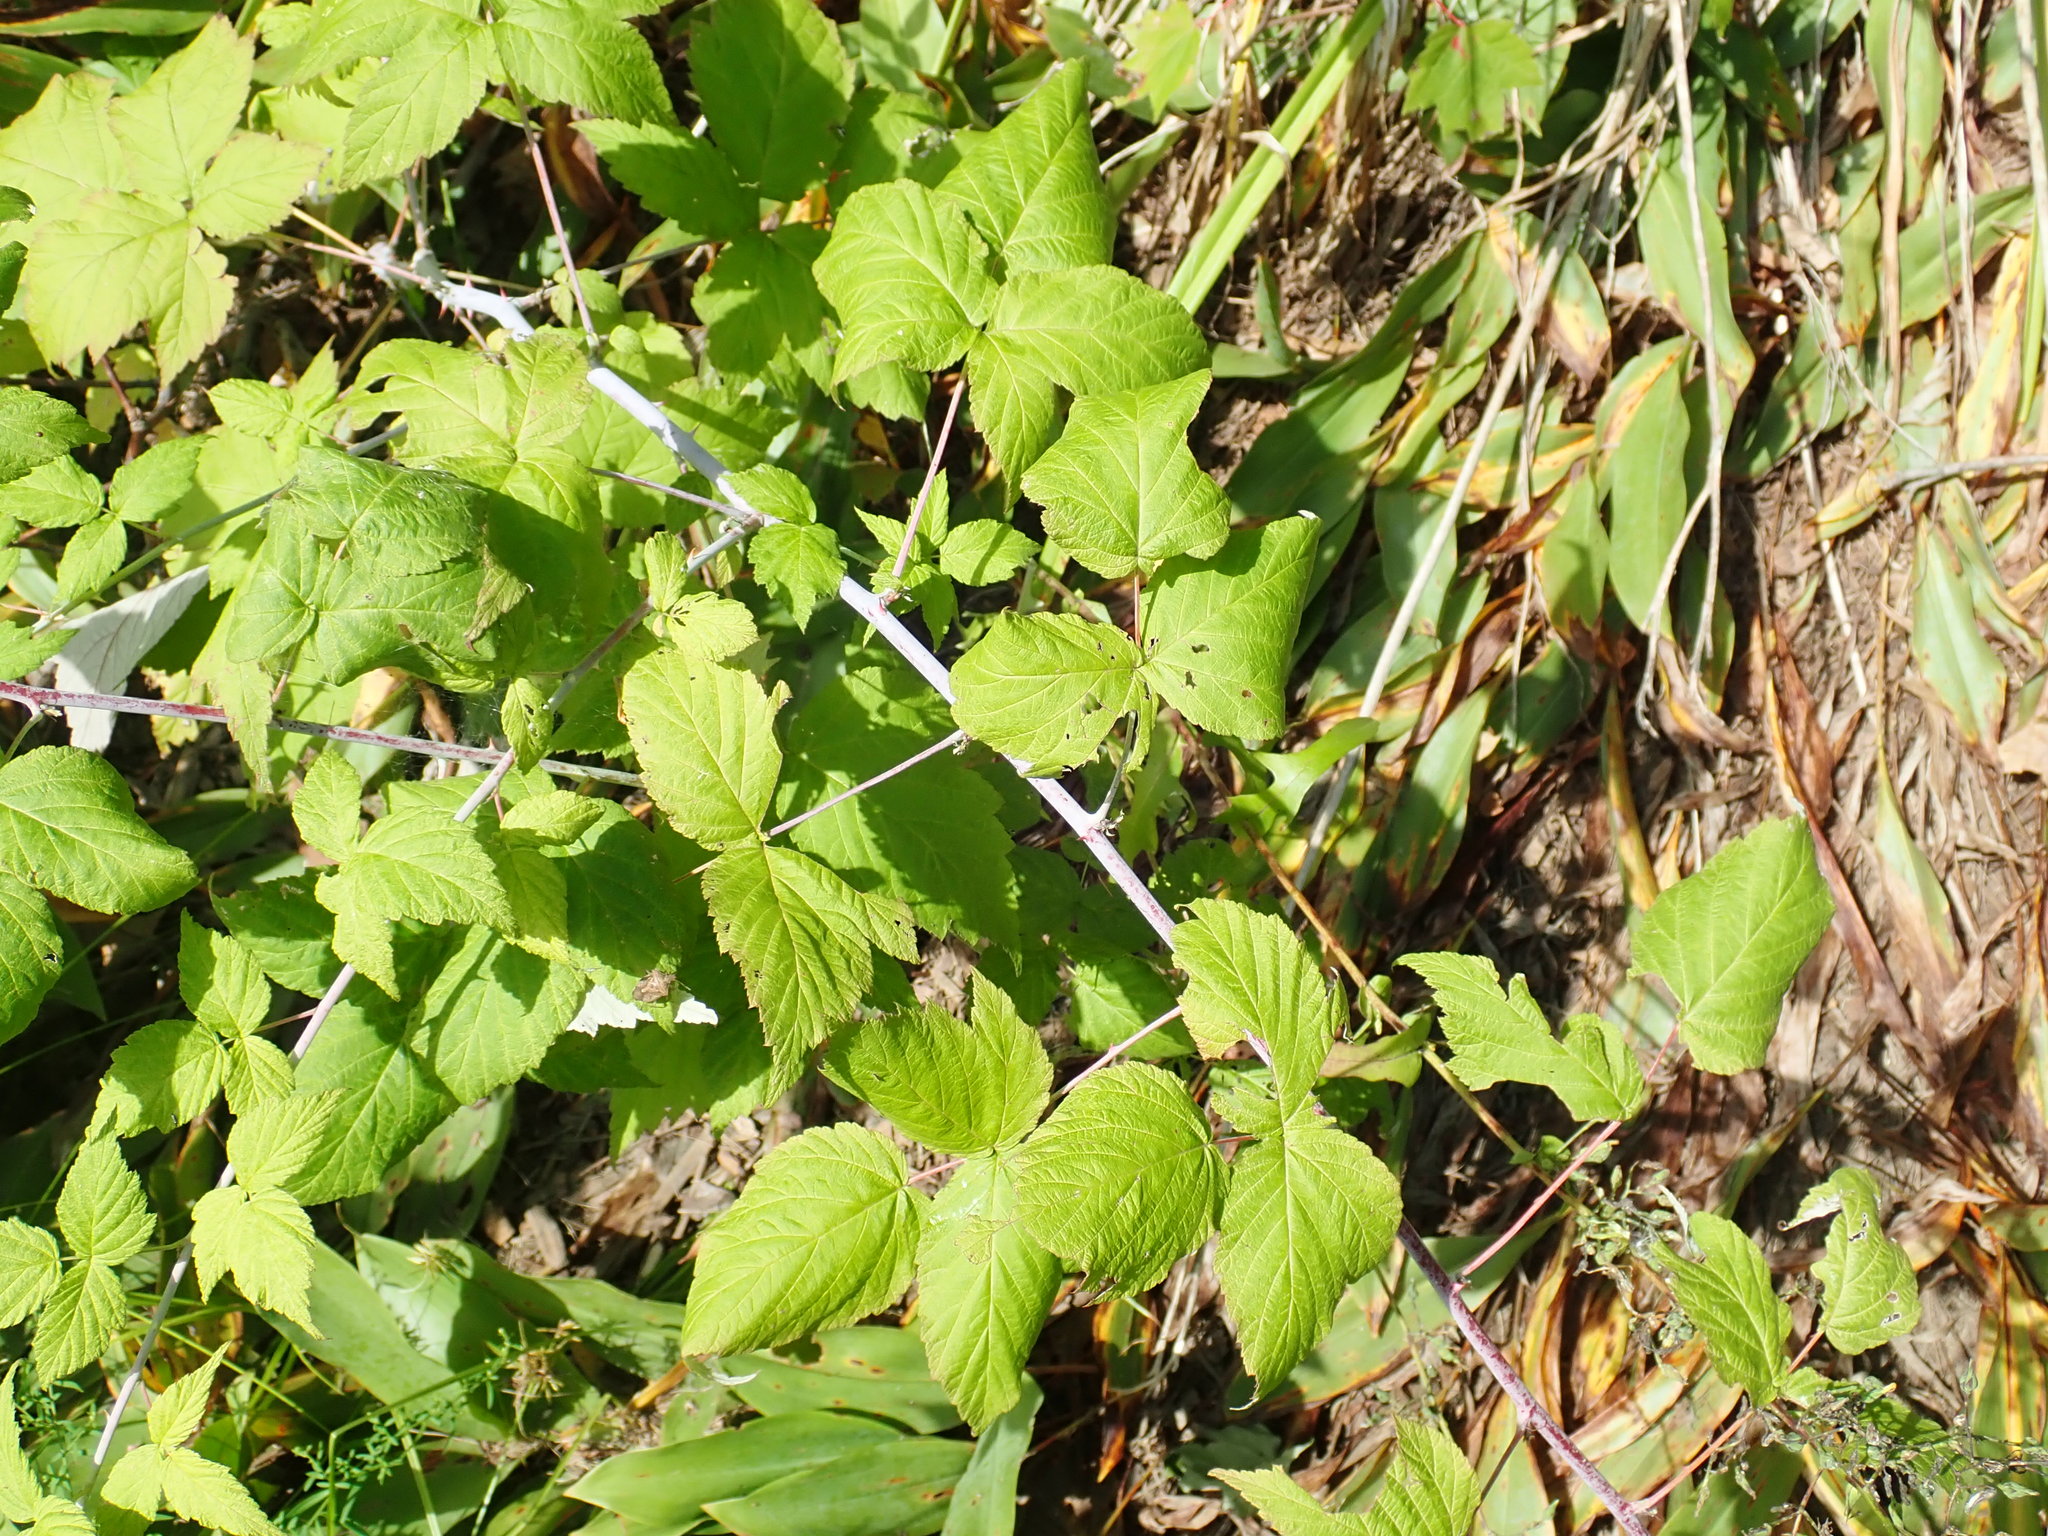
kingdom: Plantae
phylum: Tracheophyta
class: Magnoliopsida
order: Rosales
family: Rosaceae
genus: Rubus
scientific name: Rubus occidentalis
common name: Black raspberry
